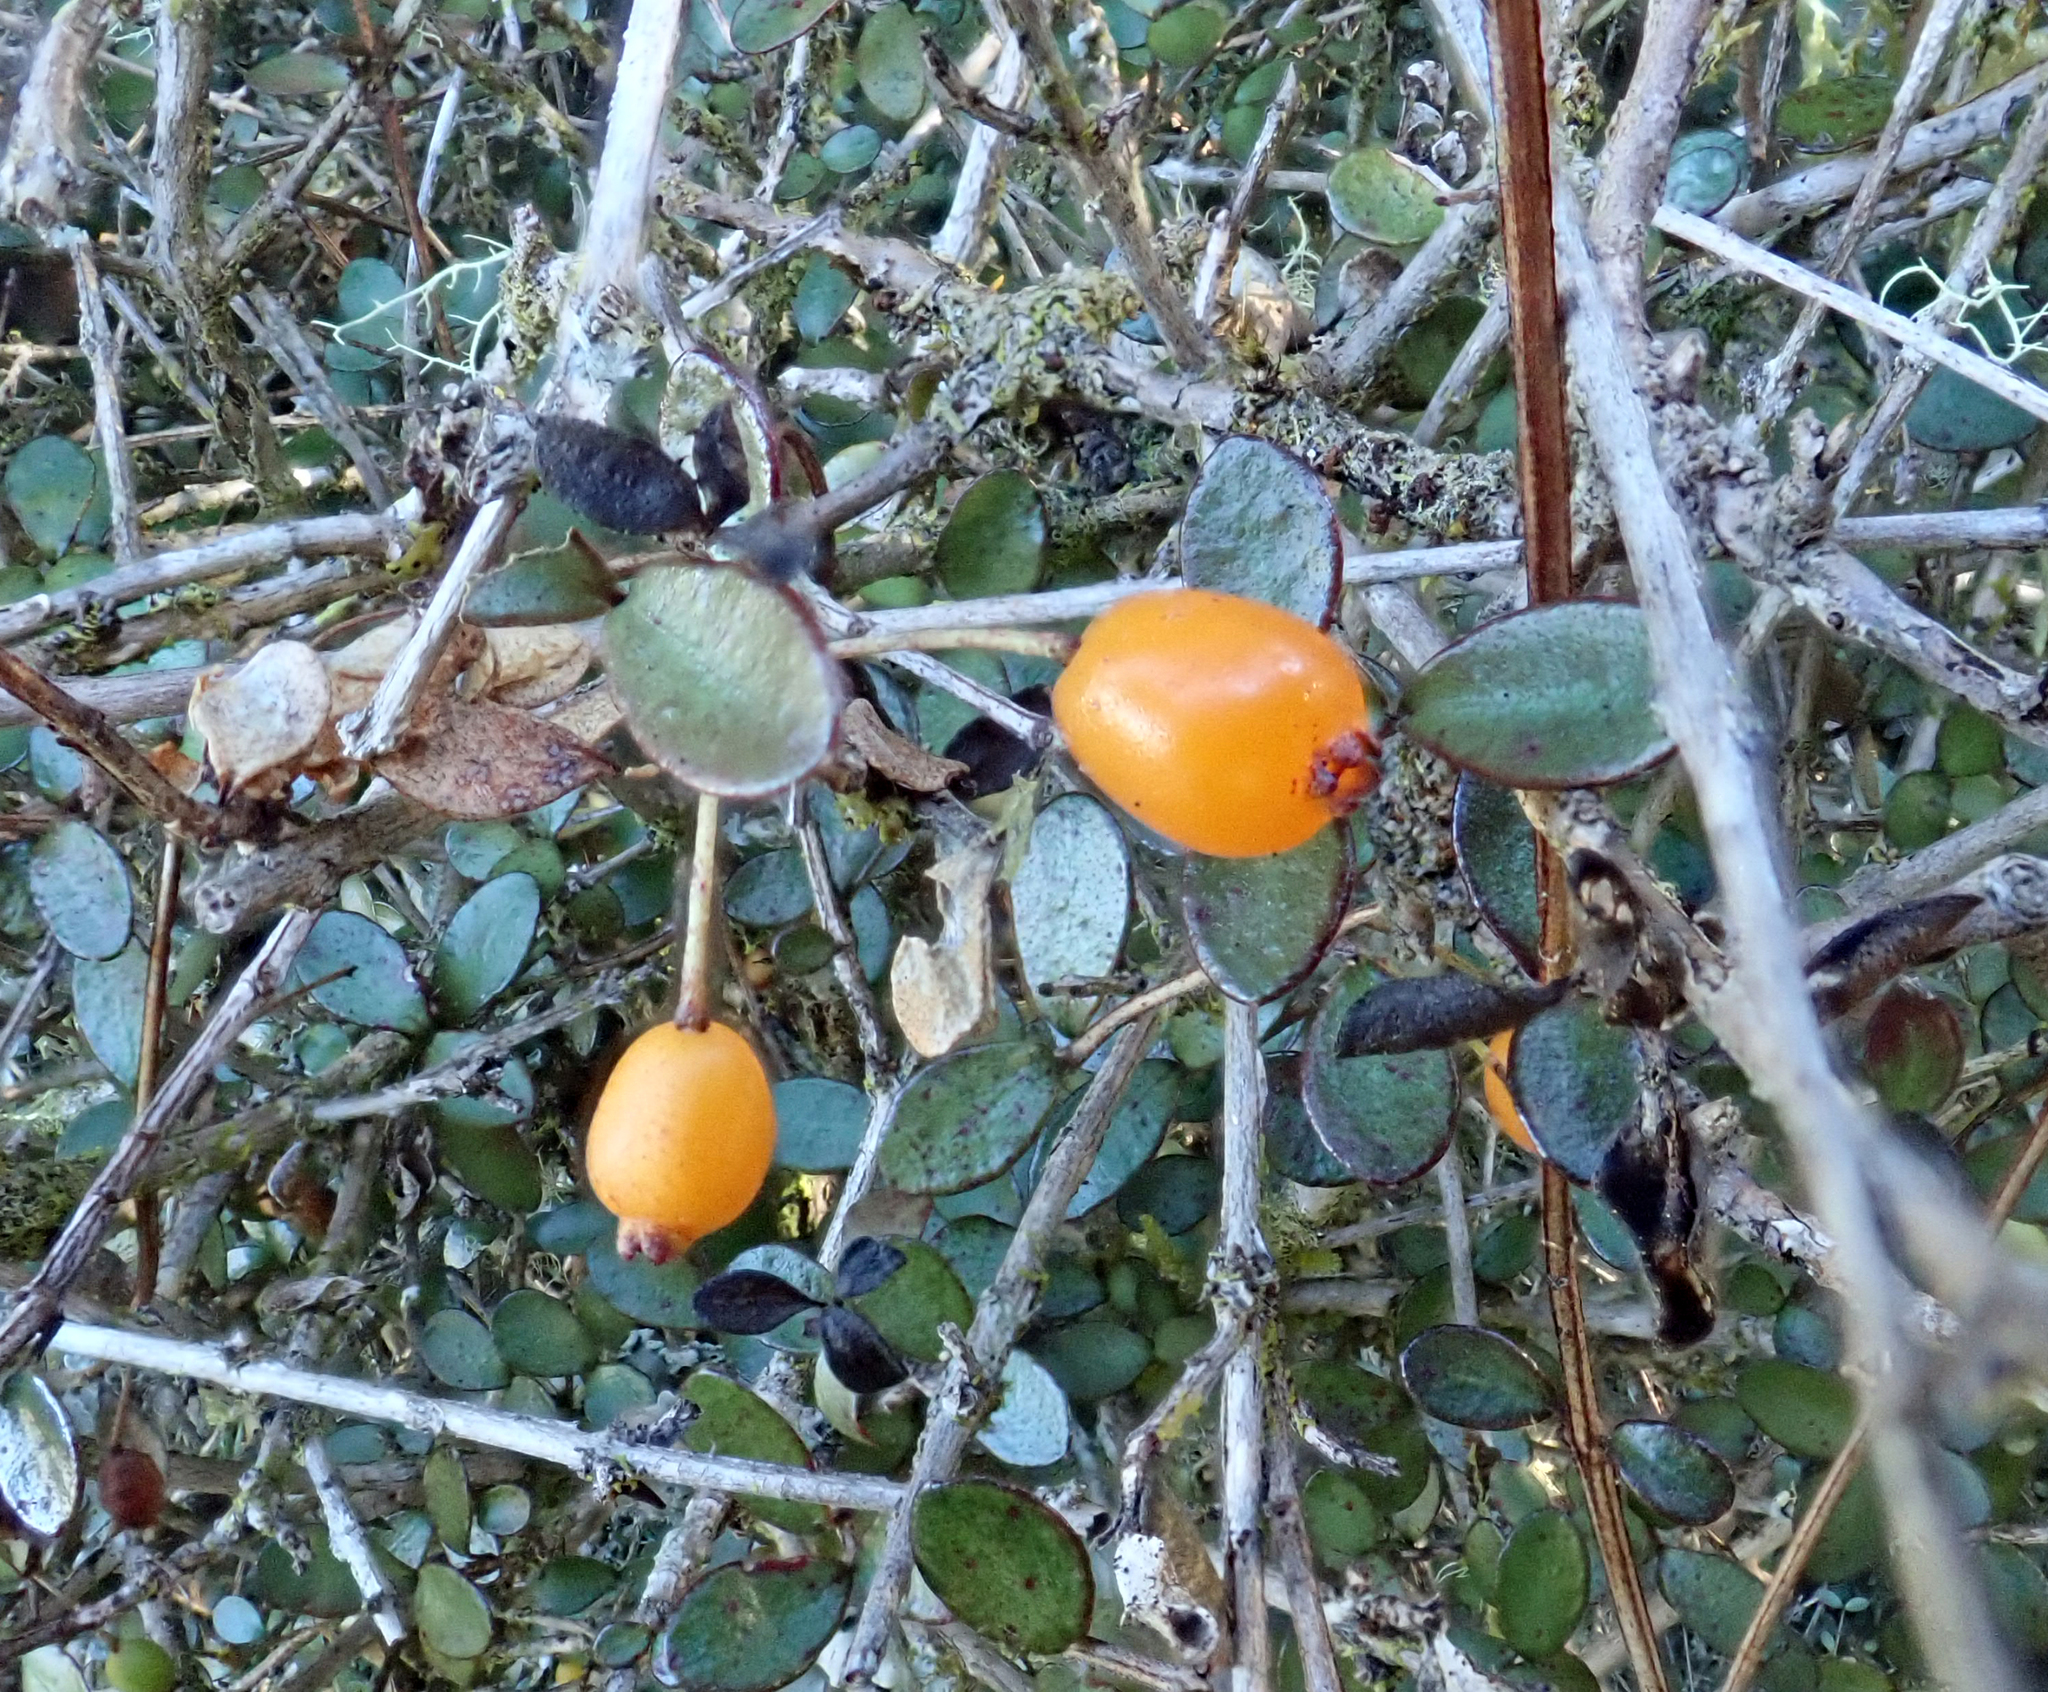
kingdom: Plantae
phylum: Tracheophyta
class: Magnoliopsida
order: Myrtales
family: Myrtaceae
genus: Neomyrtus
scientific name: Neomyrtus pedunculata
